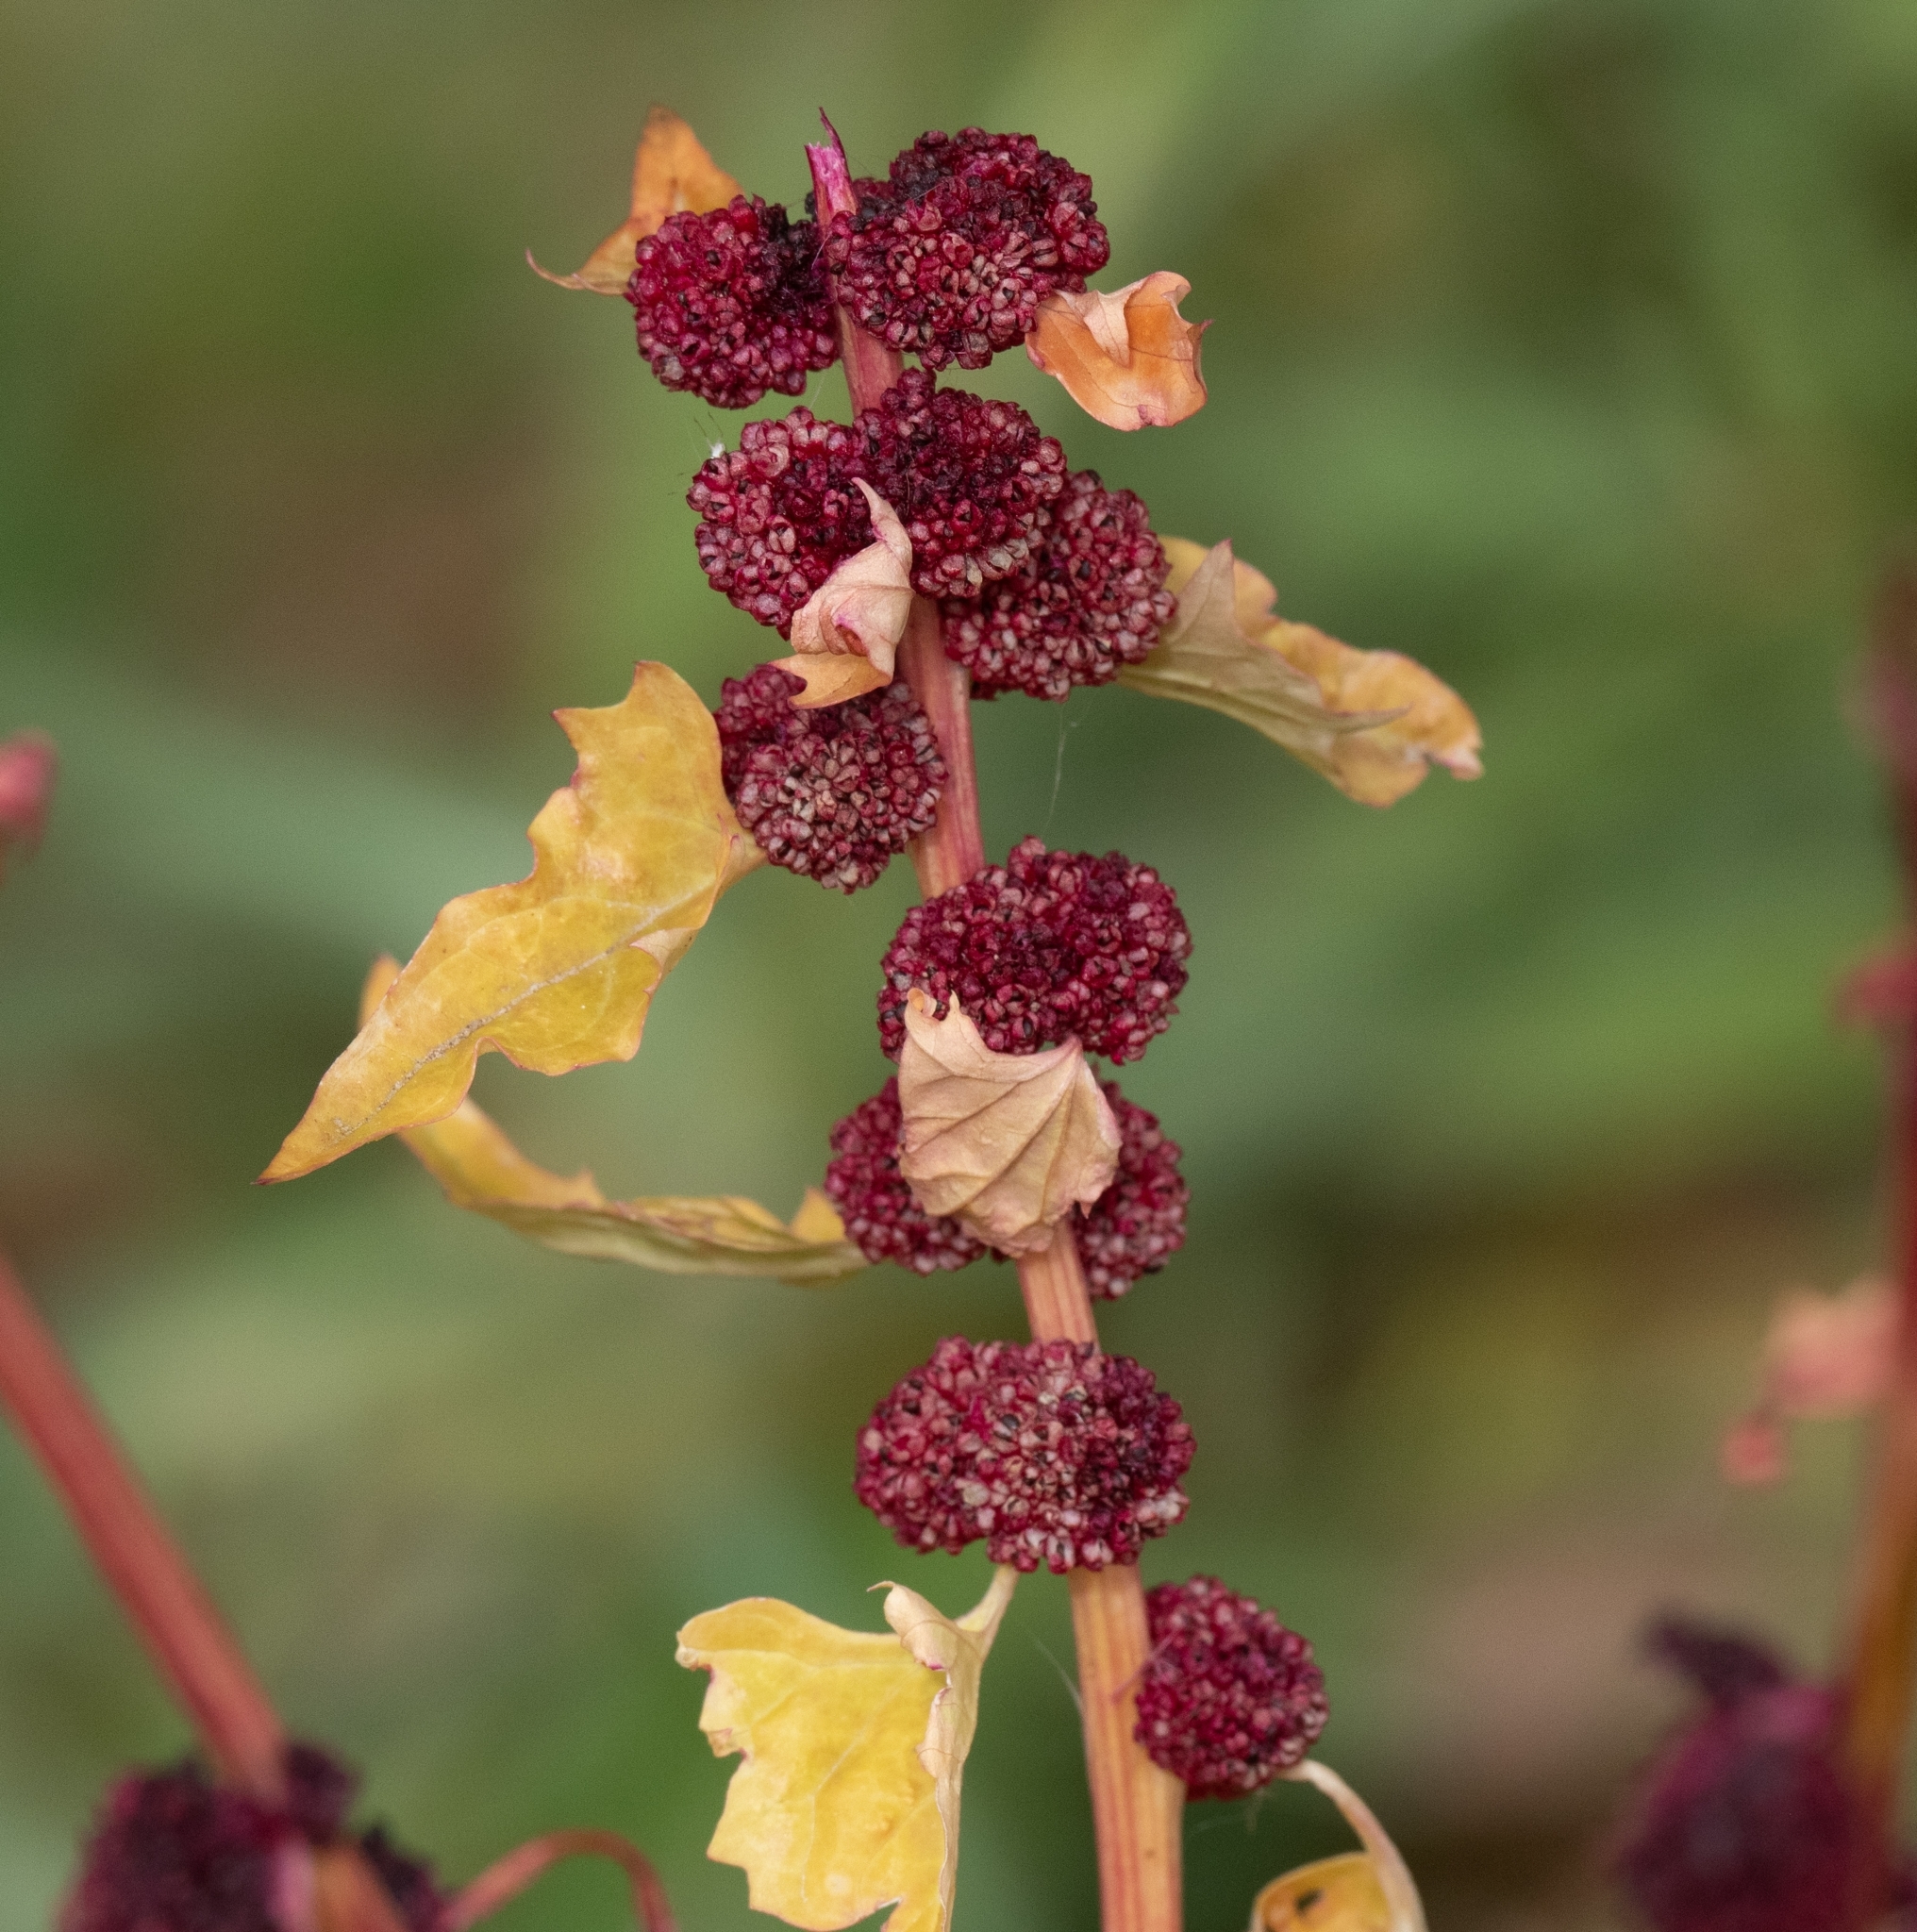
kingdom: Plantae
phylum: Tracheophyta
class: Magnoliopsida
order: Caryophyllales
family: Amaranthaceae
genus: Blitum
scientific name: Blitum capitatum
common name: Strawberry-blight
